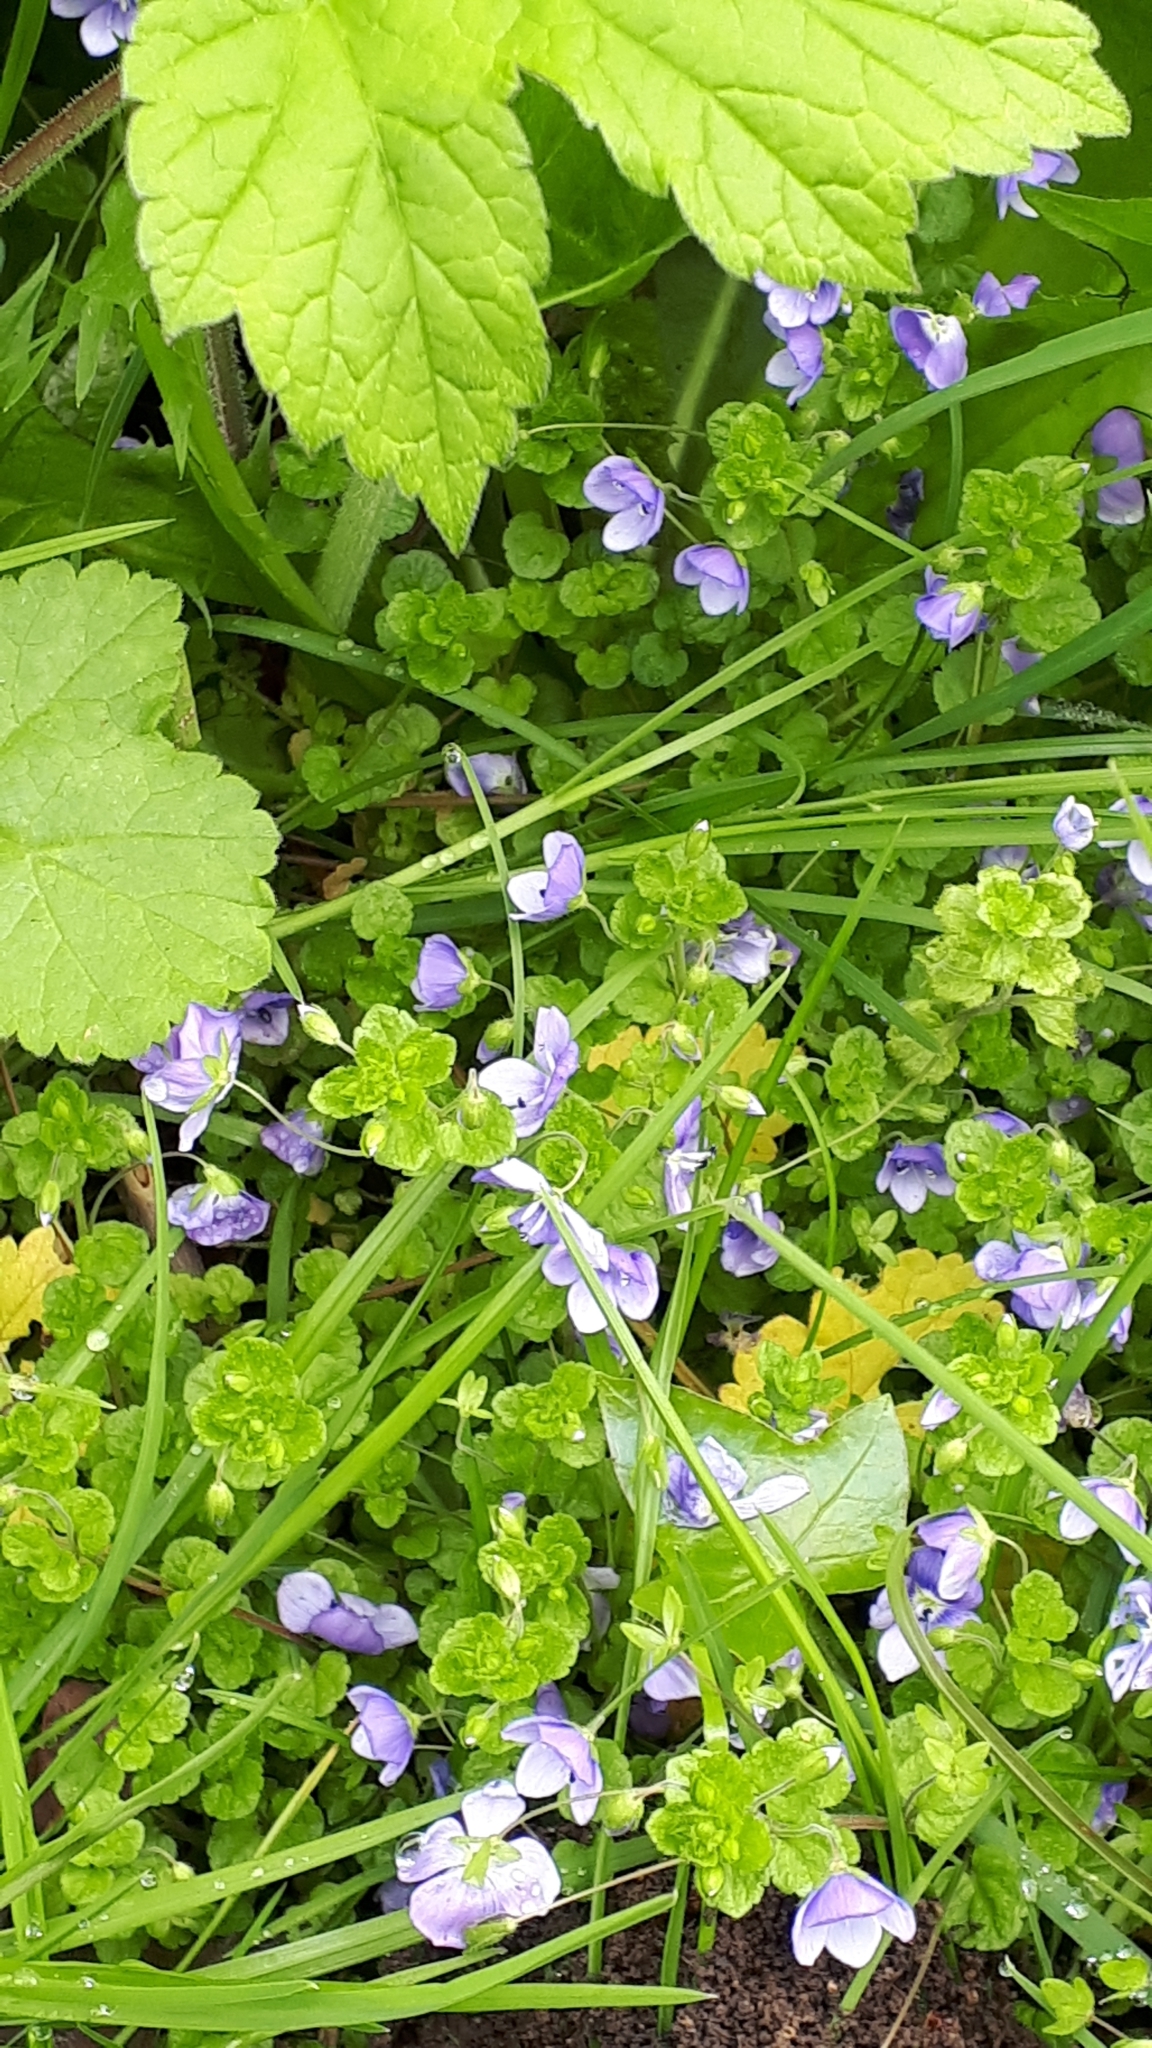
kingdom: Plantae
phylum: Tracheophyta
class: Magnoliopsida
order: Lamiales
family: Plantaginaceae
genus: Veronica
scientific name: Veronica filiformis
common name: Slender speedwell
